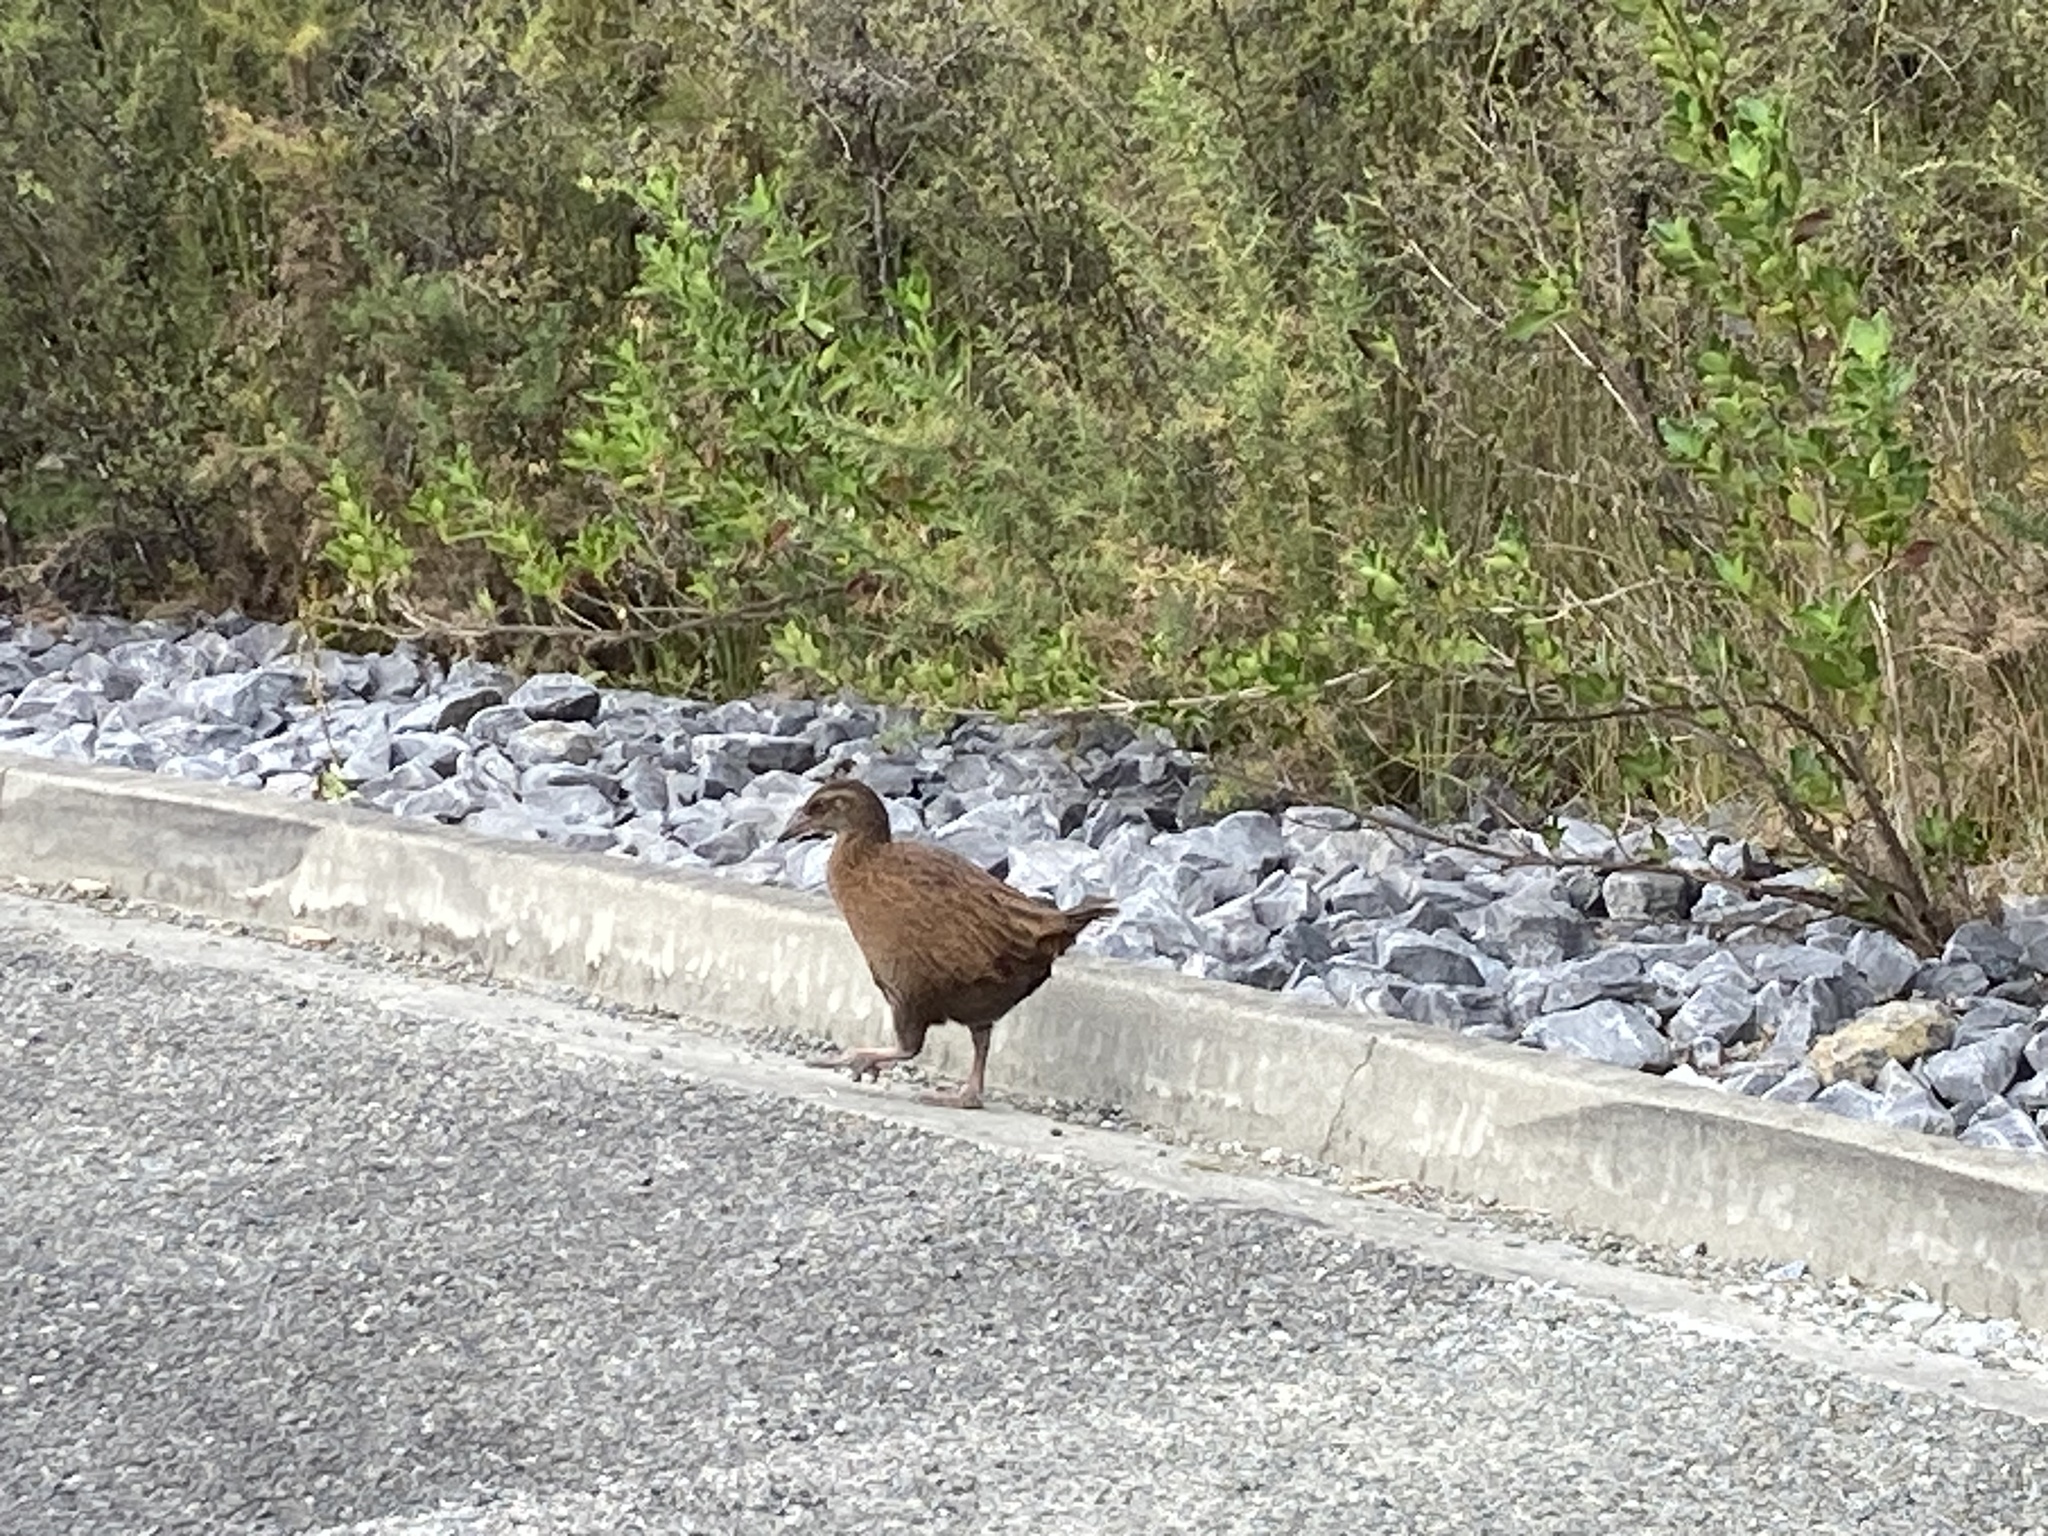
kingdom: Animalia
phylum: Chordata
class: Aves
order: Gruiformes
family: Rallidae
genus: Gallirallus
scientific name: Gallirallus australis
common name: Weka
